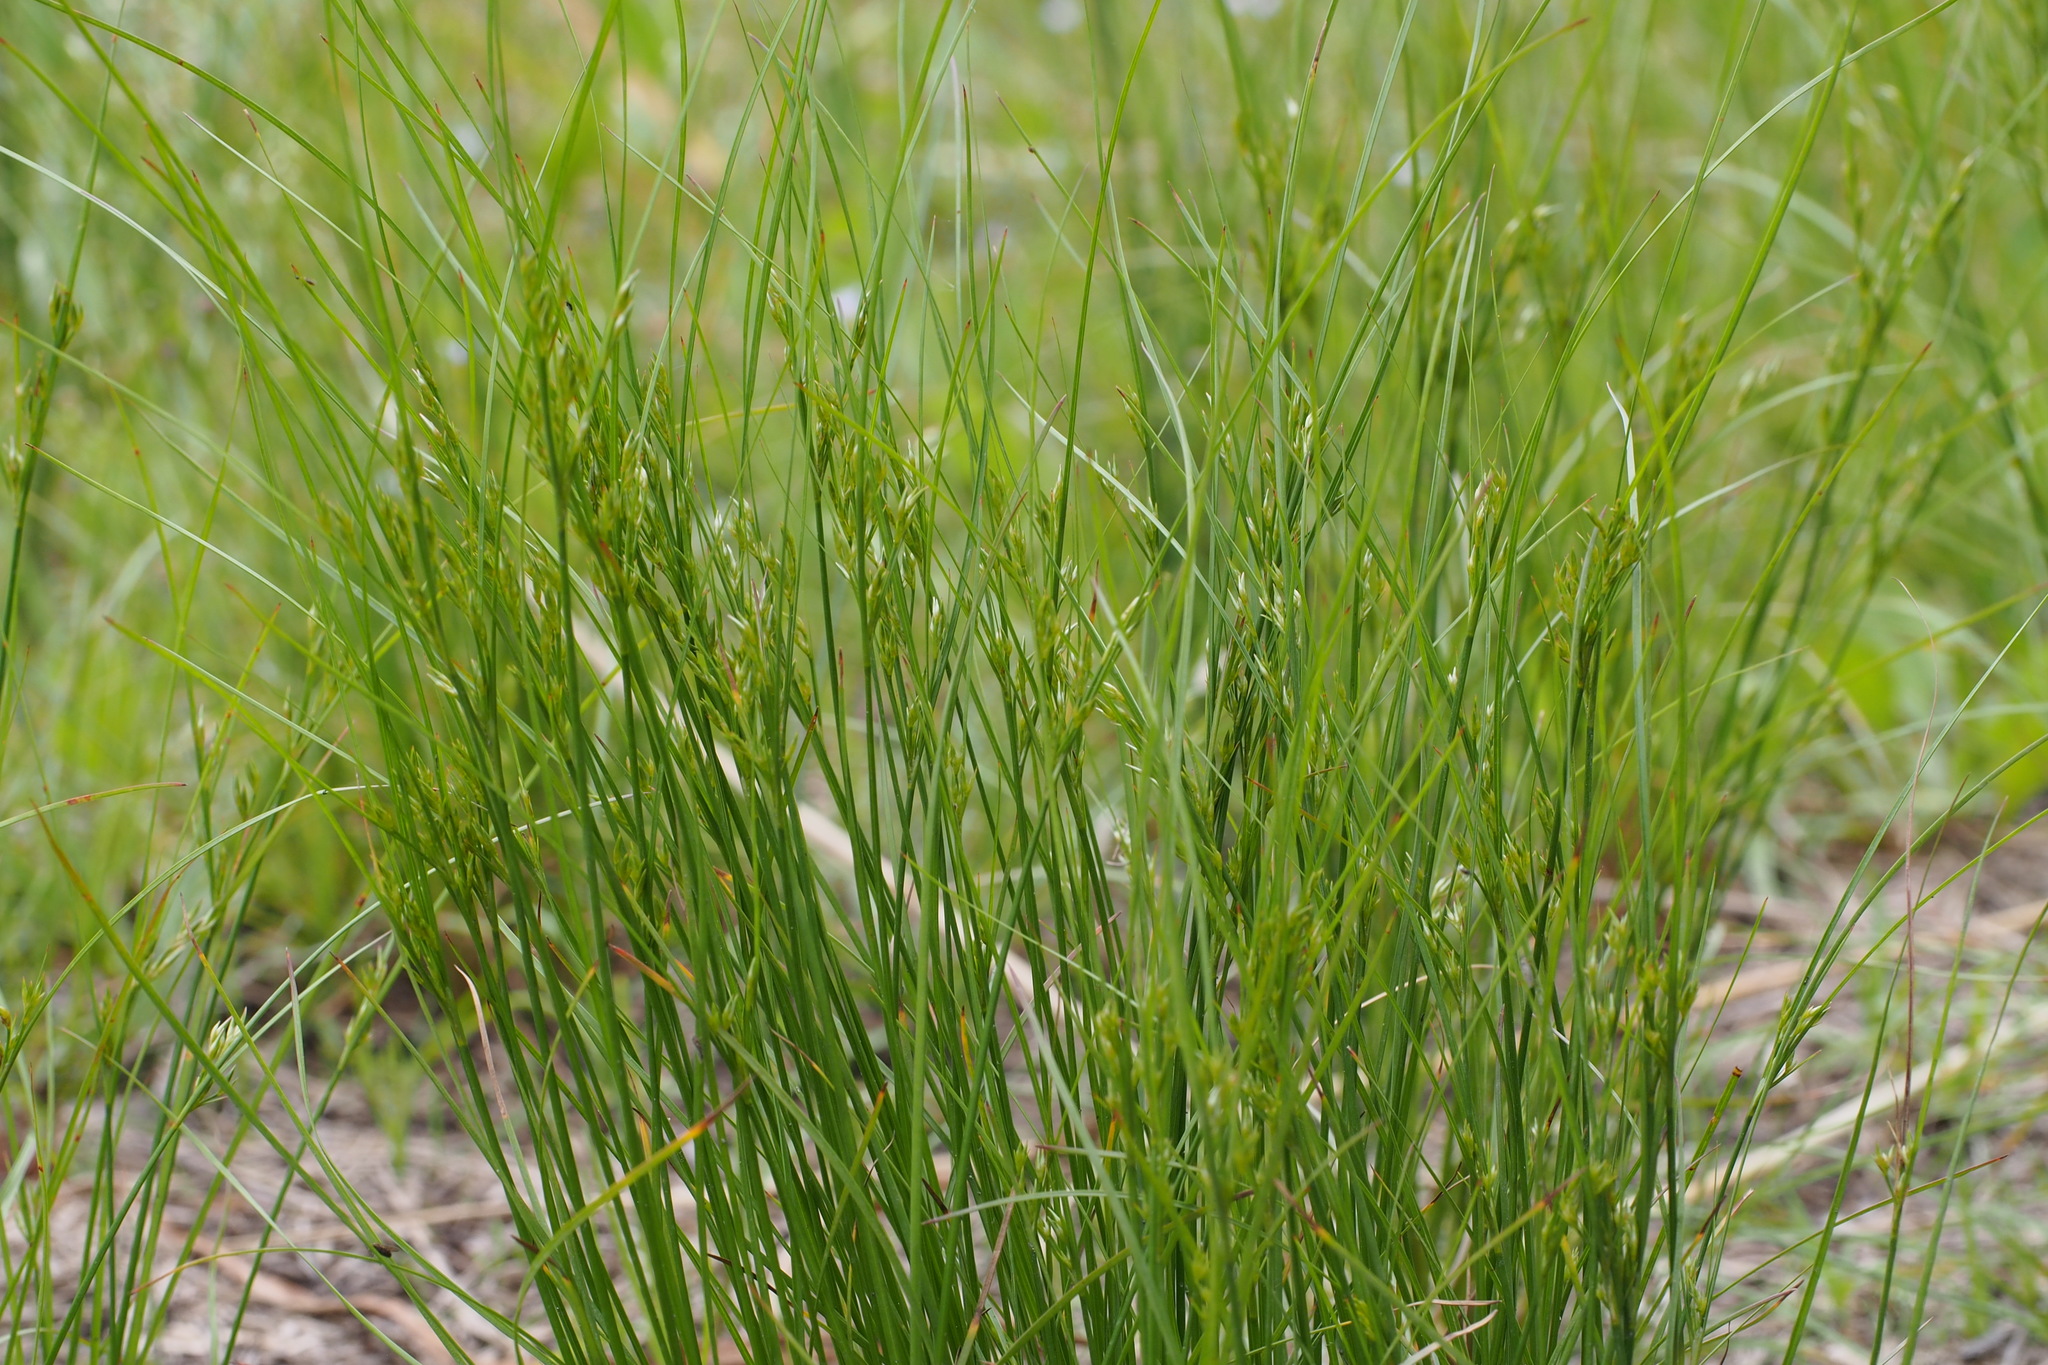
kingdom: Plantae
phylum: Tracheophyta
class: Liliopsida
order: Poales
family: Juncaceae
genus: Juncus
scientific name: Juncus tenuis
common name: Slender rush
